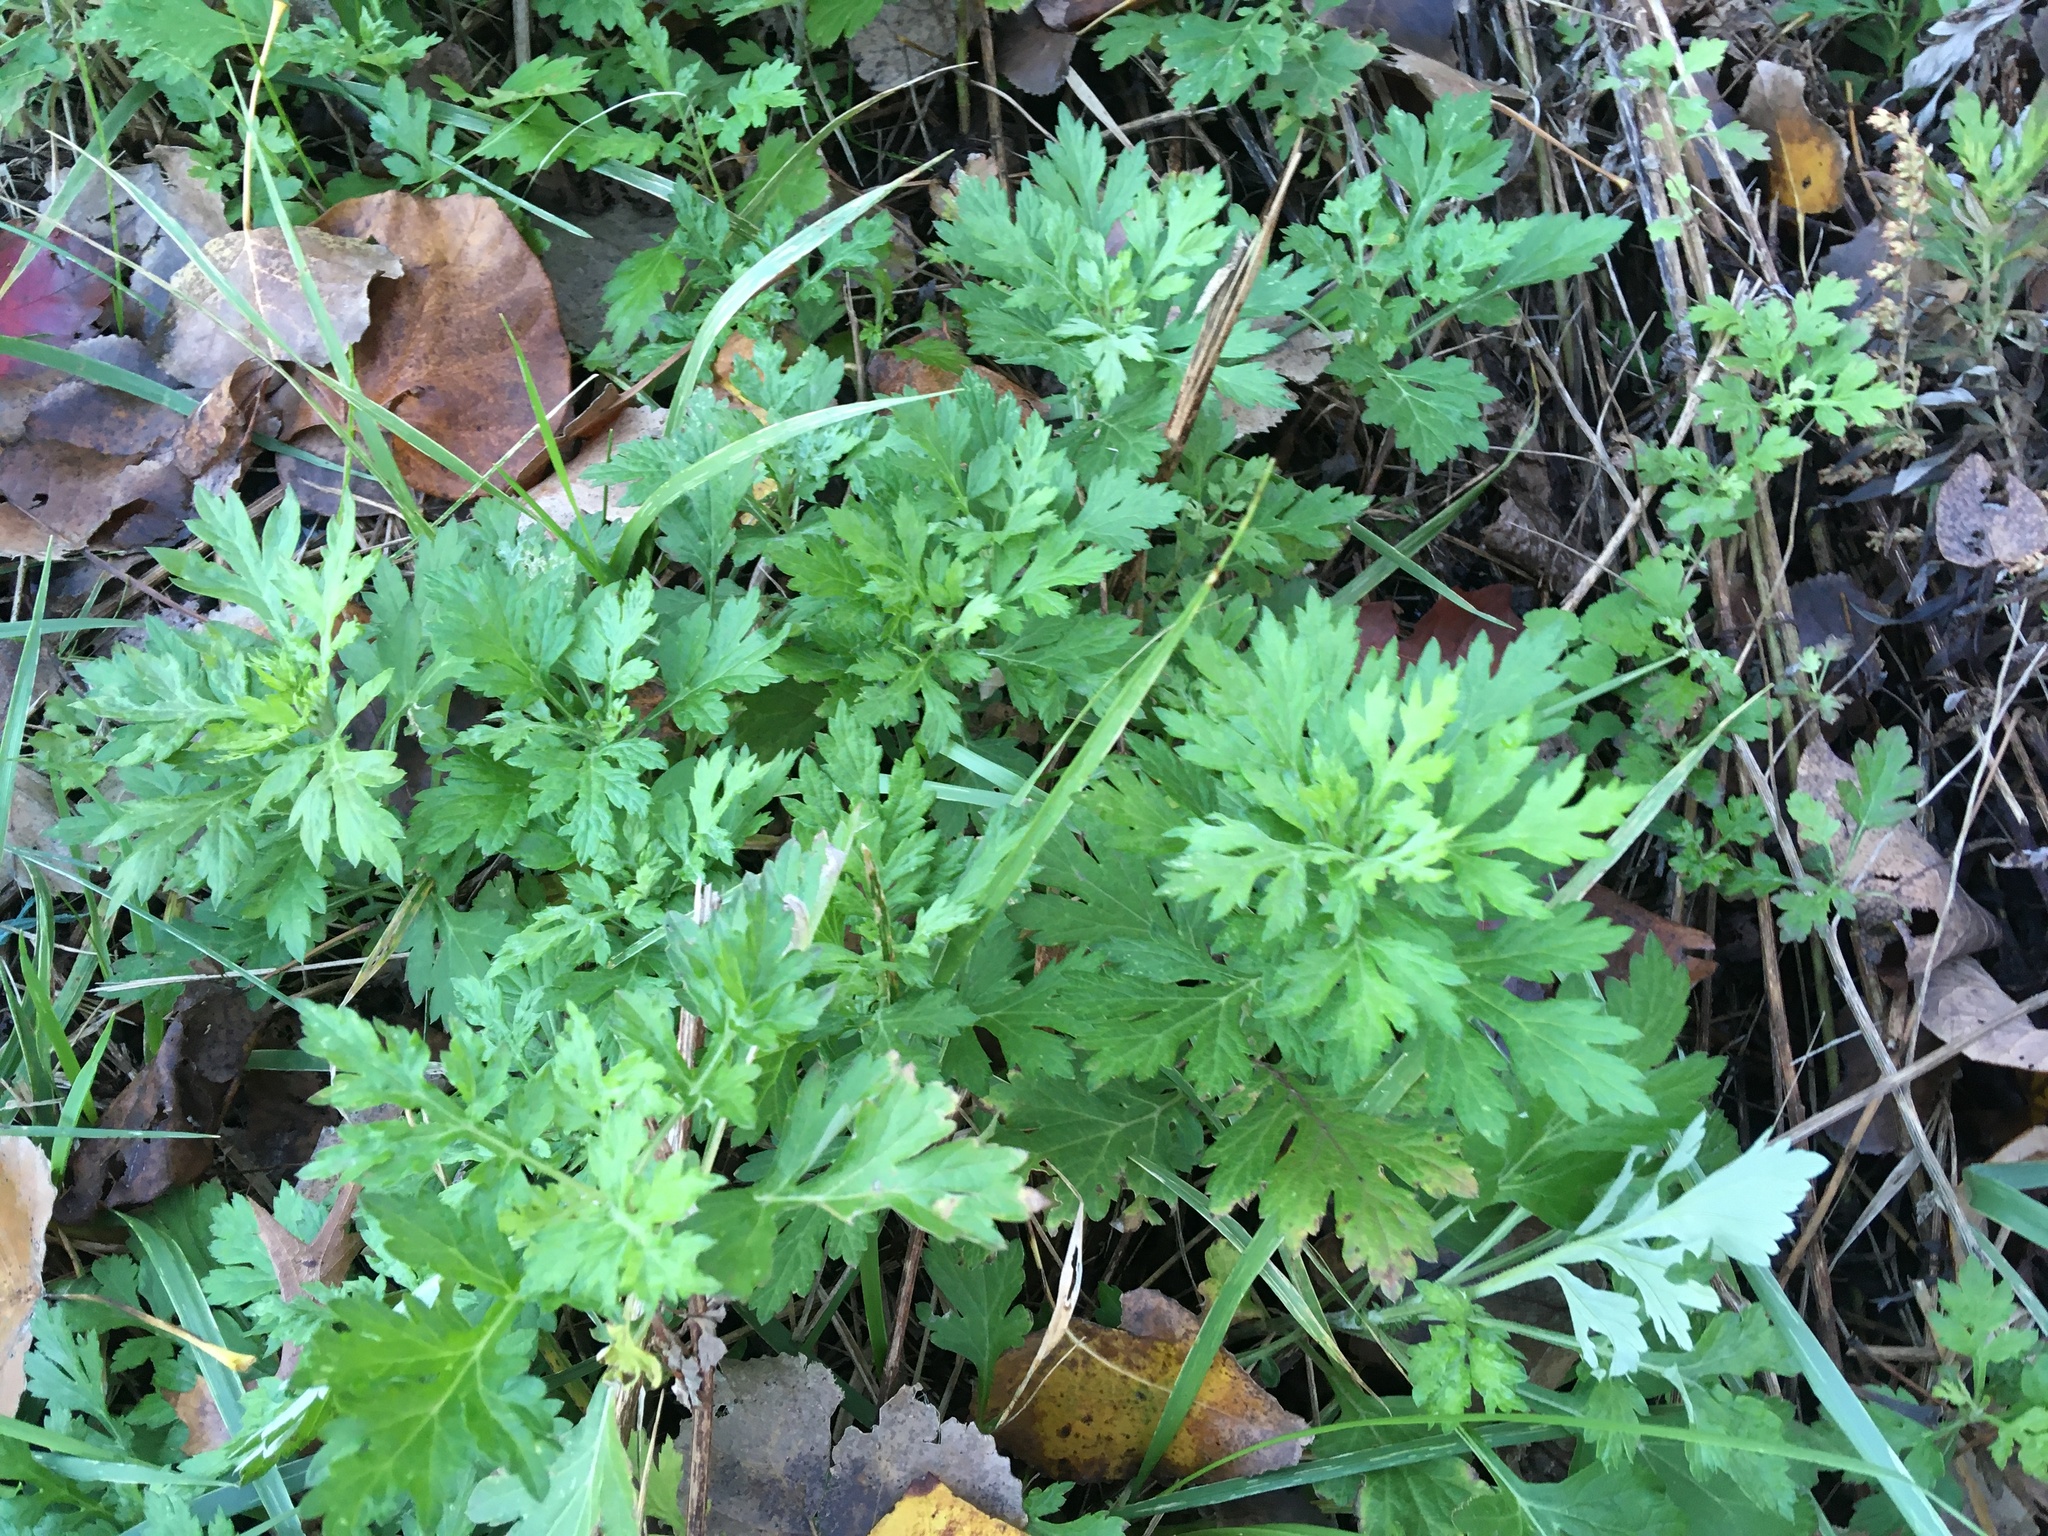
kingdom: Plantae
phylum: Tracheophyta
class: Magnoliopsida
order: Asterales
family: Asteraceae
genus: Artemisia
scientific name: Artemisia vulgaris
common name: Mugwort
